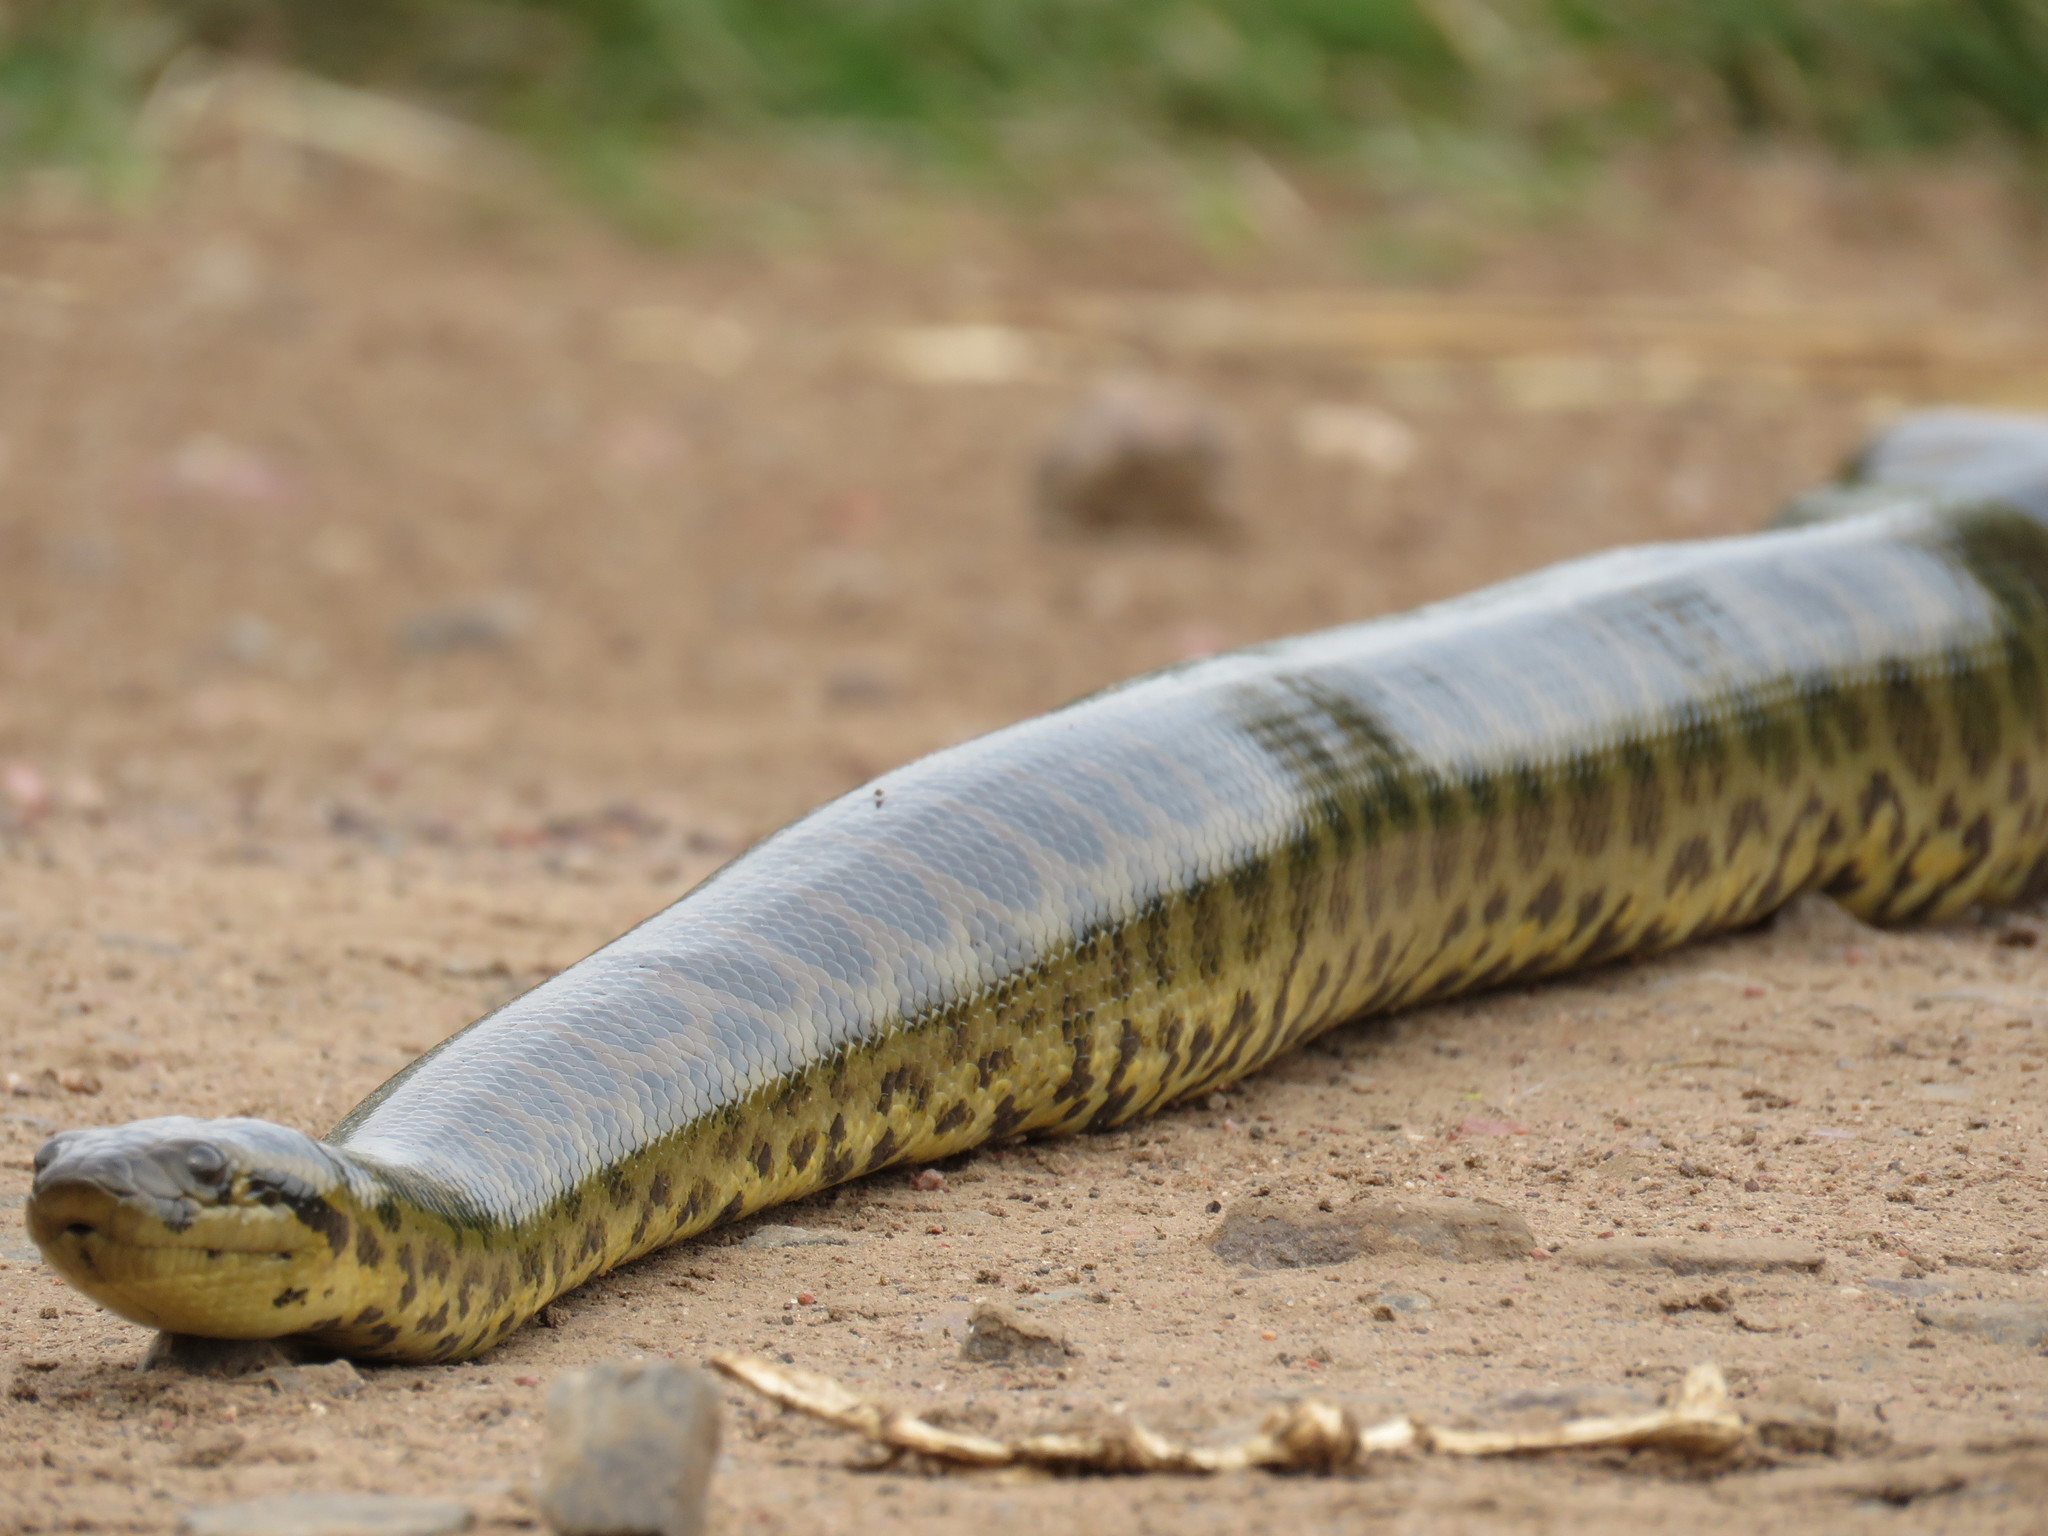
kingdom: Animalia
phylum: Chordata
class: Squamata
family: Boidae
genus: Eunectes
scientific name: Eunectes notaeus
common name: Yellow anaconda
